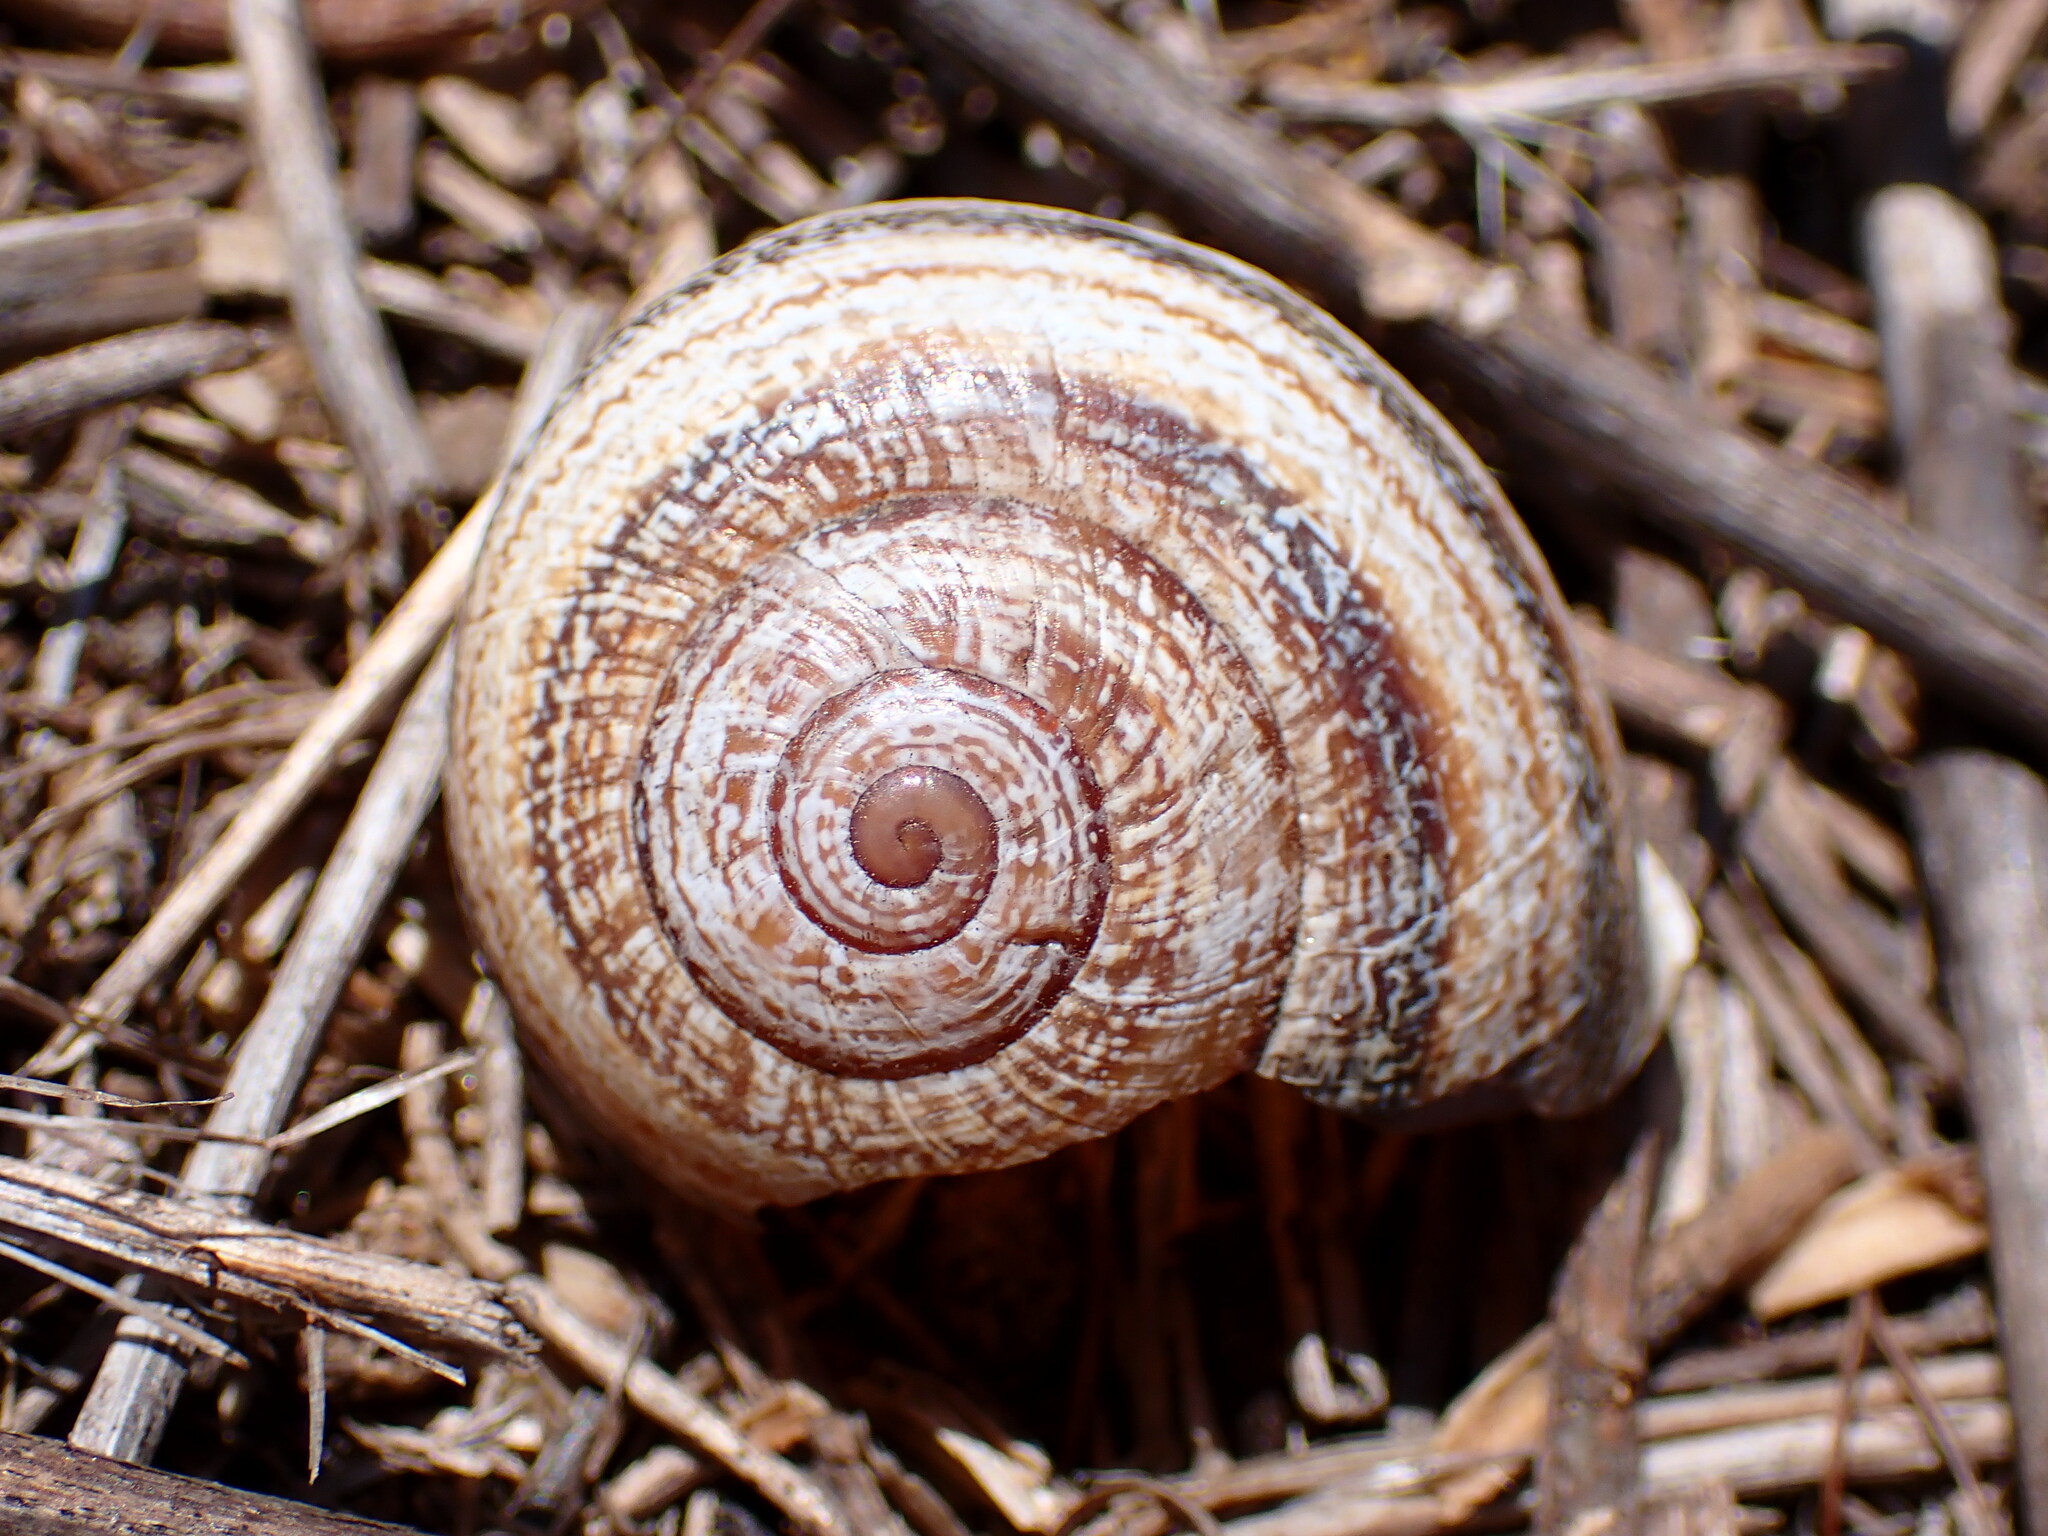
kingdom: Animalia
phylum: Mollusca
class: Gastropoda
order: Stylommatophora
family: Helicidae
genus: Otala
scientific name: Otala lactea
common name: Milk snail
